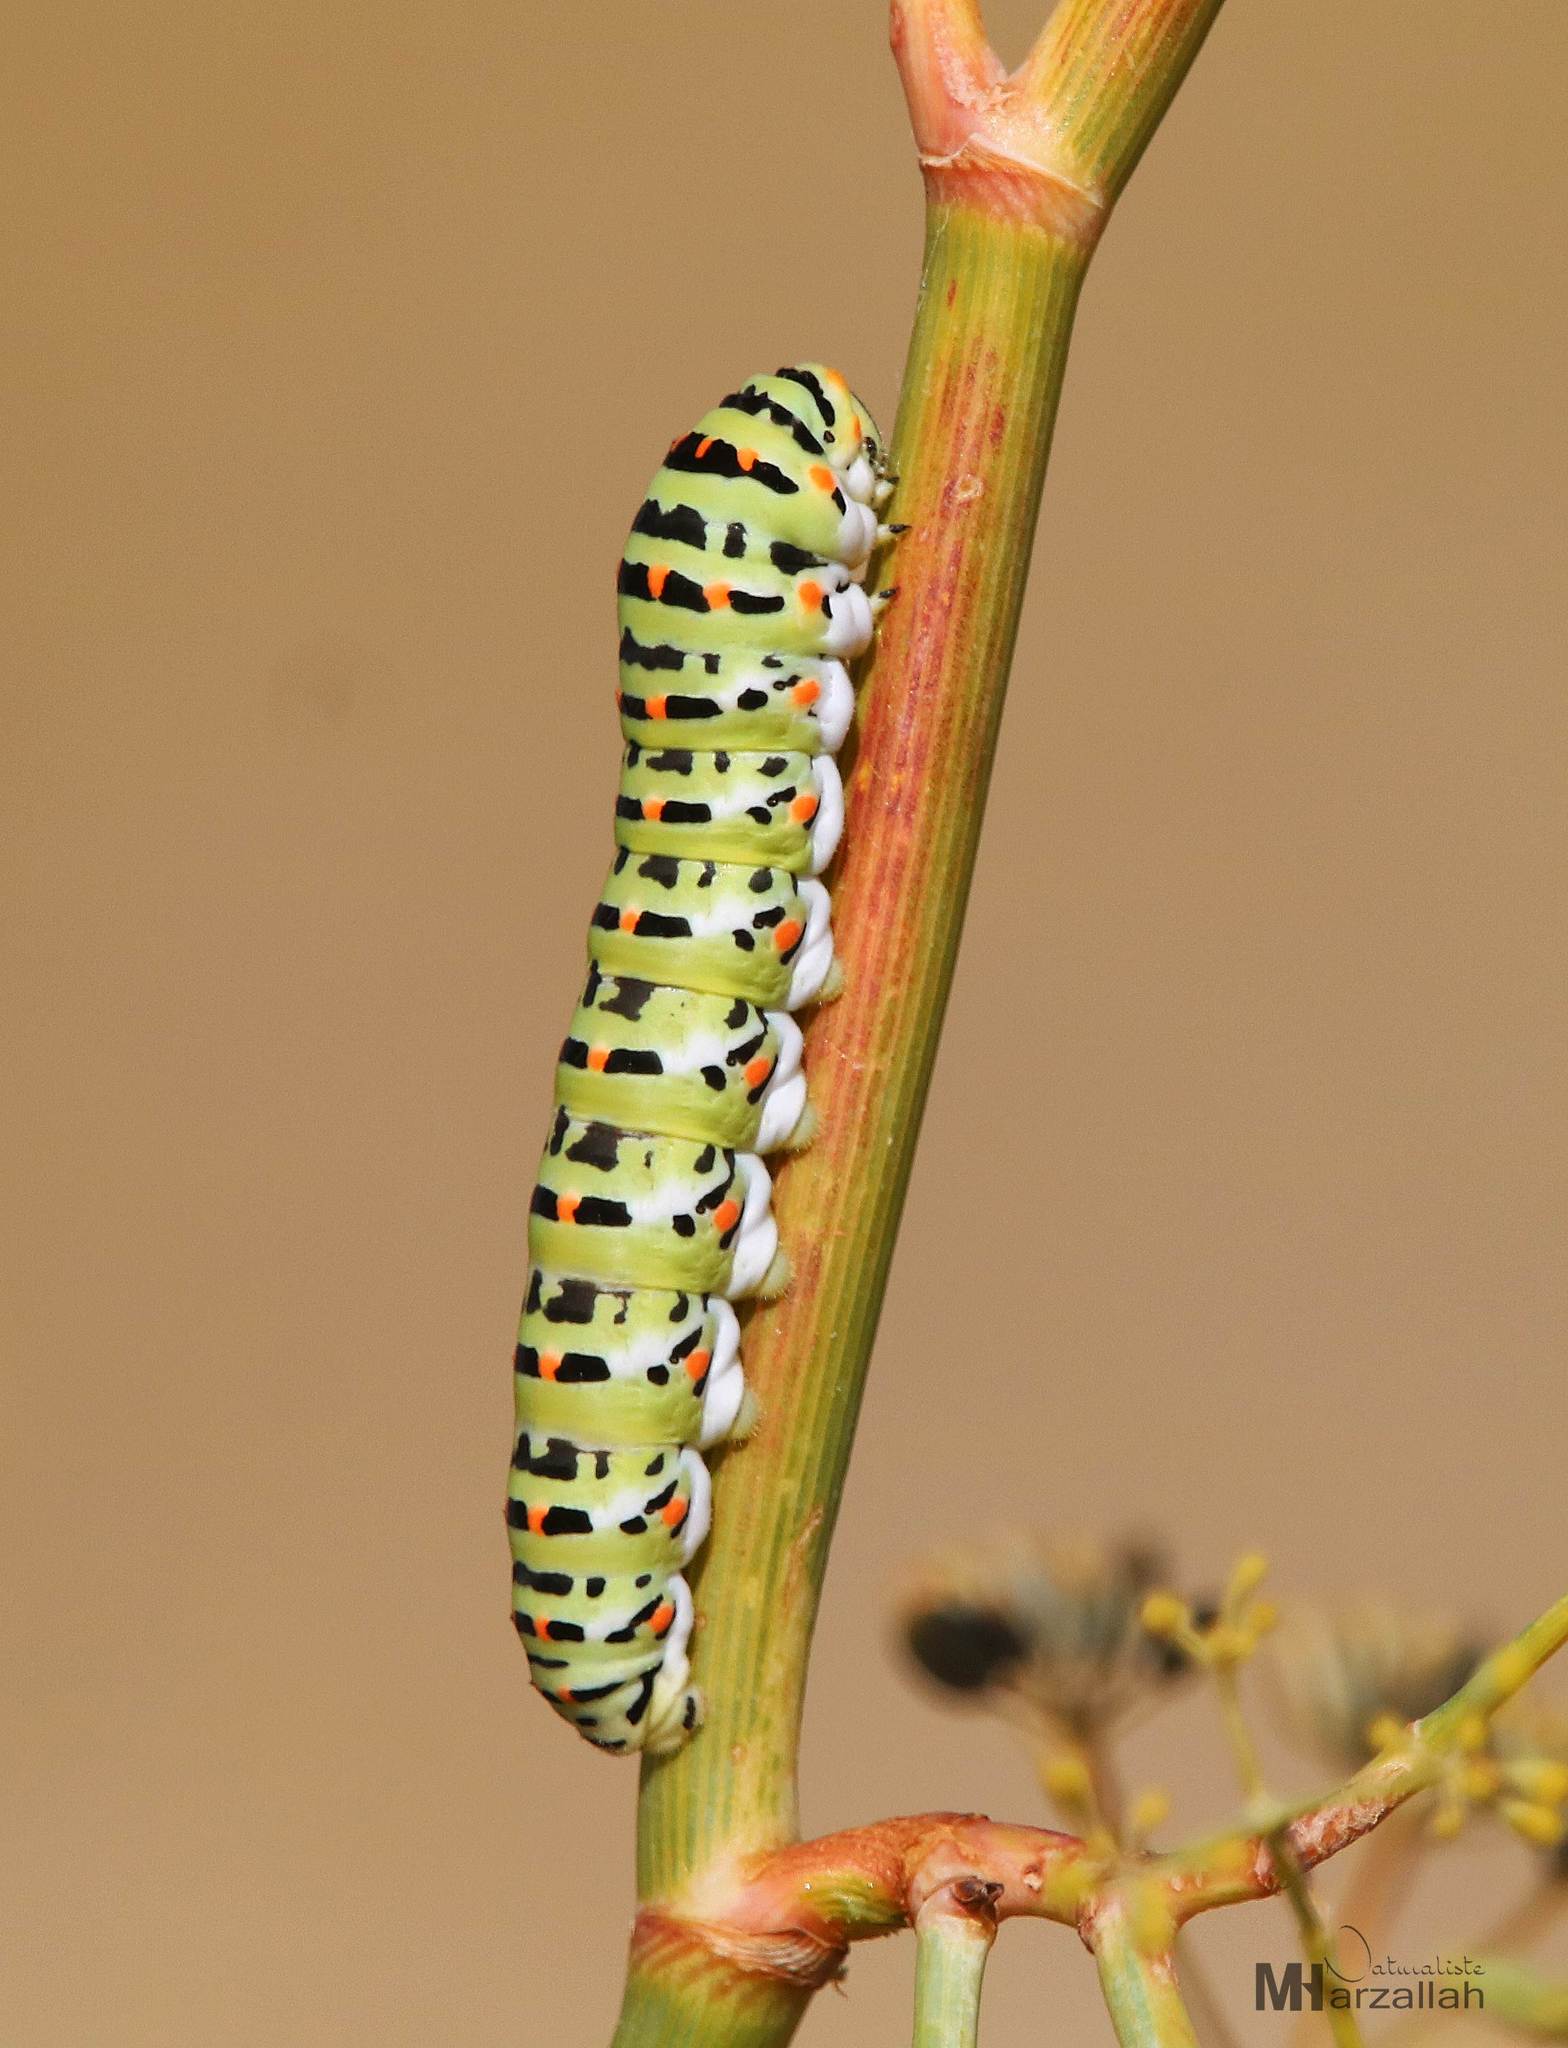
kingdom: Animalia
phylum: Arthropoda
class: Insecta
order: Lepidoptera
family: Papilionidae
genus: Papilio
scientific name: Papilio machaon
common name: Swallowtail
